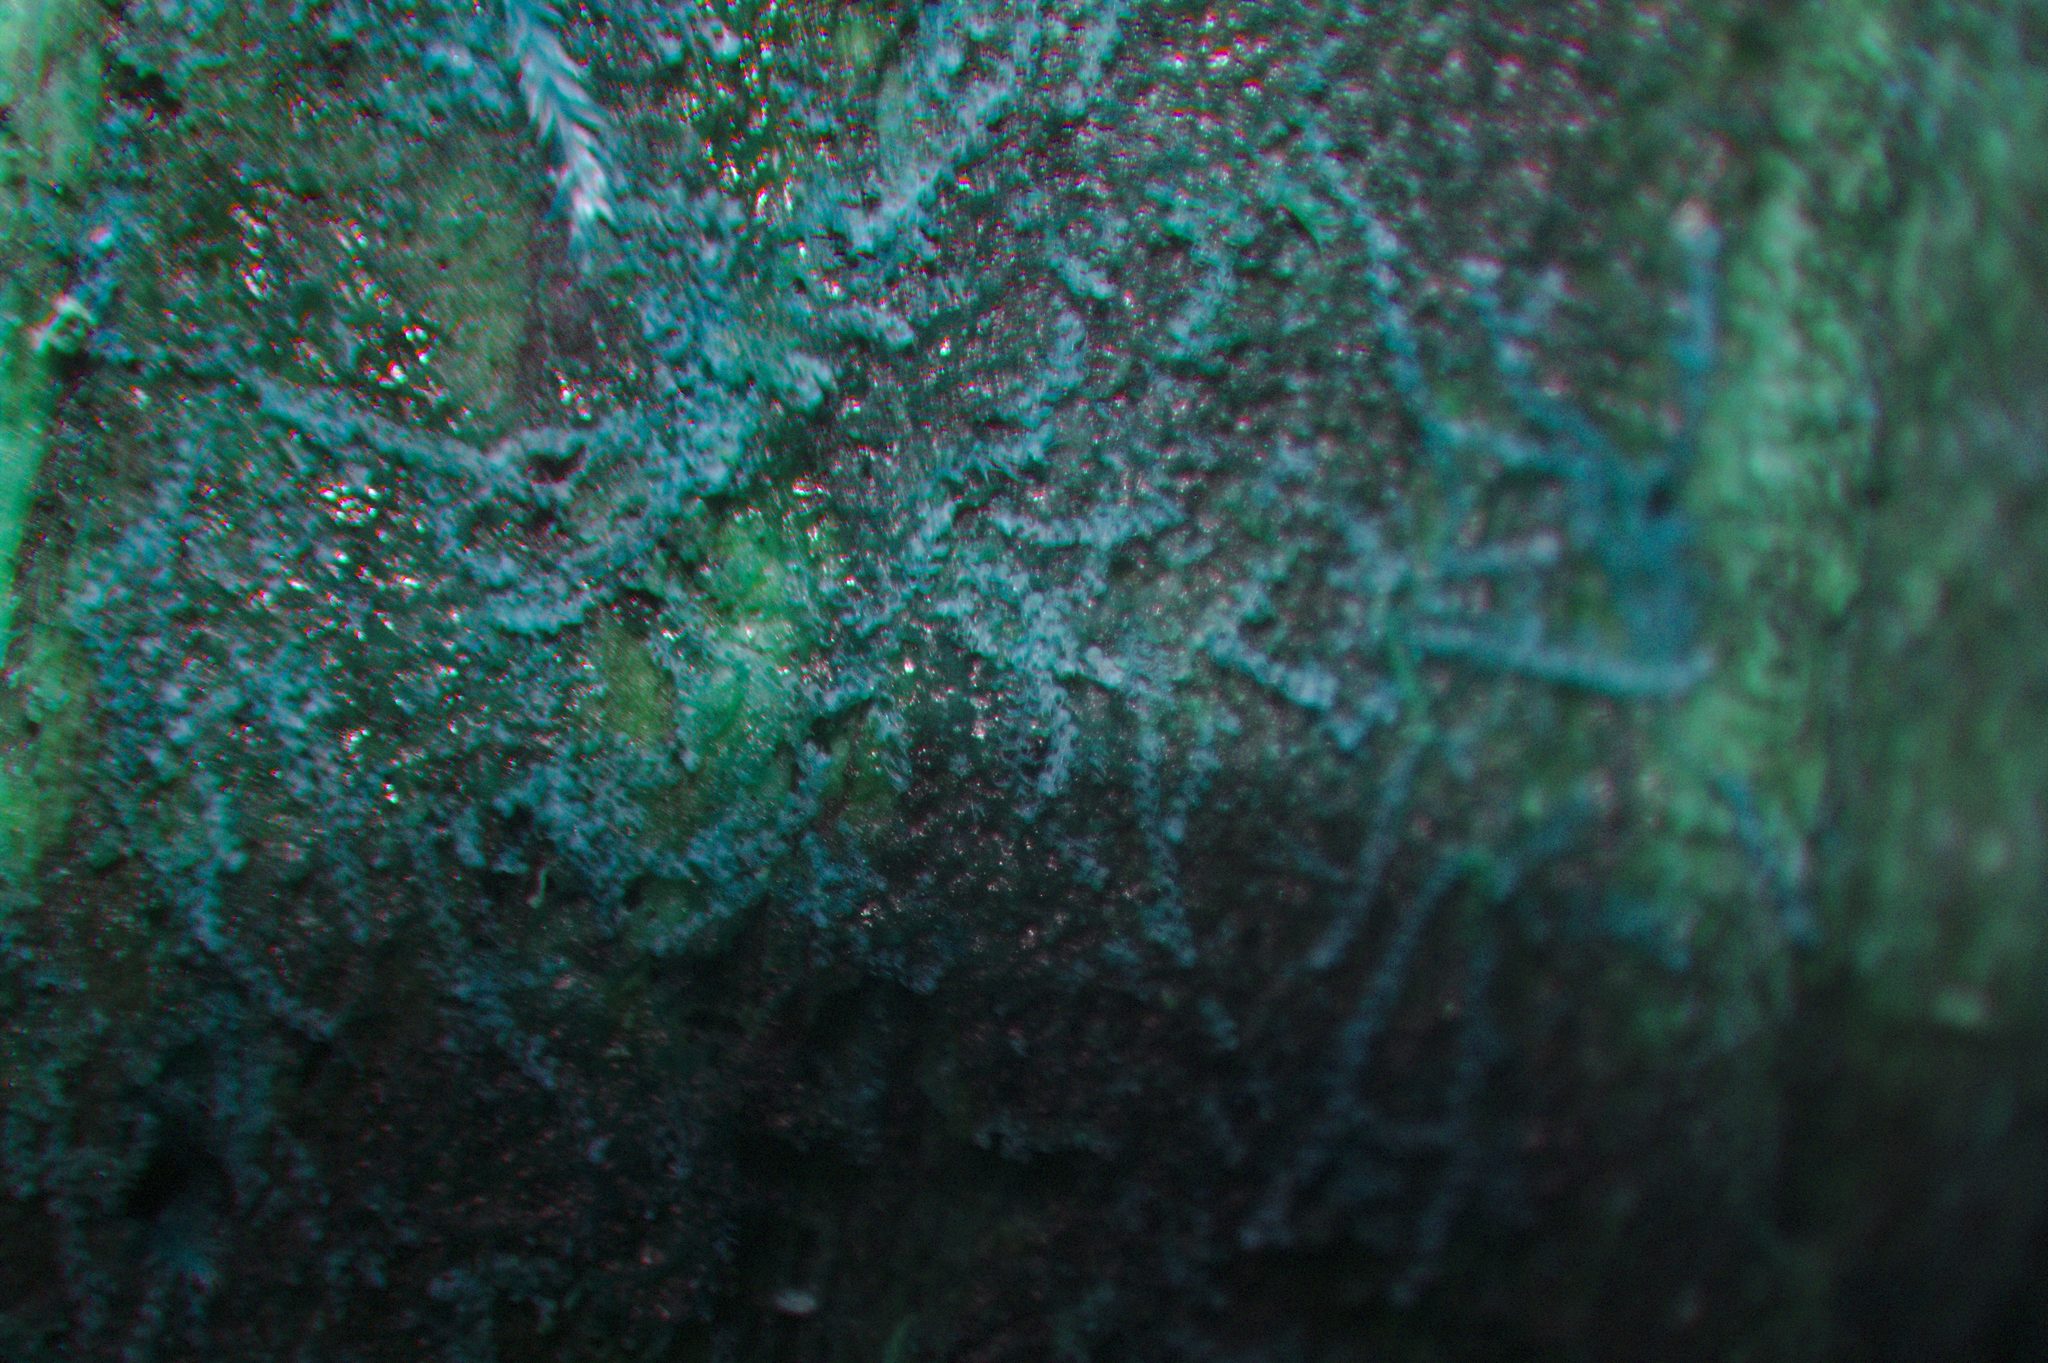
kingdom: Plantae
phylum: Marchantiophyta
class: Jungermanniopsida
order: Jungermanniales
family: Cephaloziaceae
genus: Nowellia
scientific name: Nowellia curvifolia
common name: Wood rustwort
